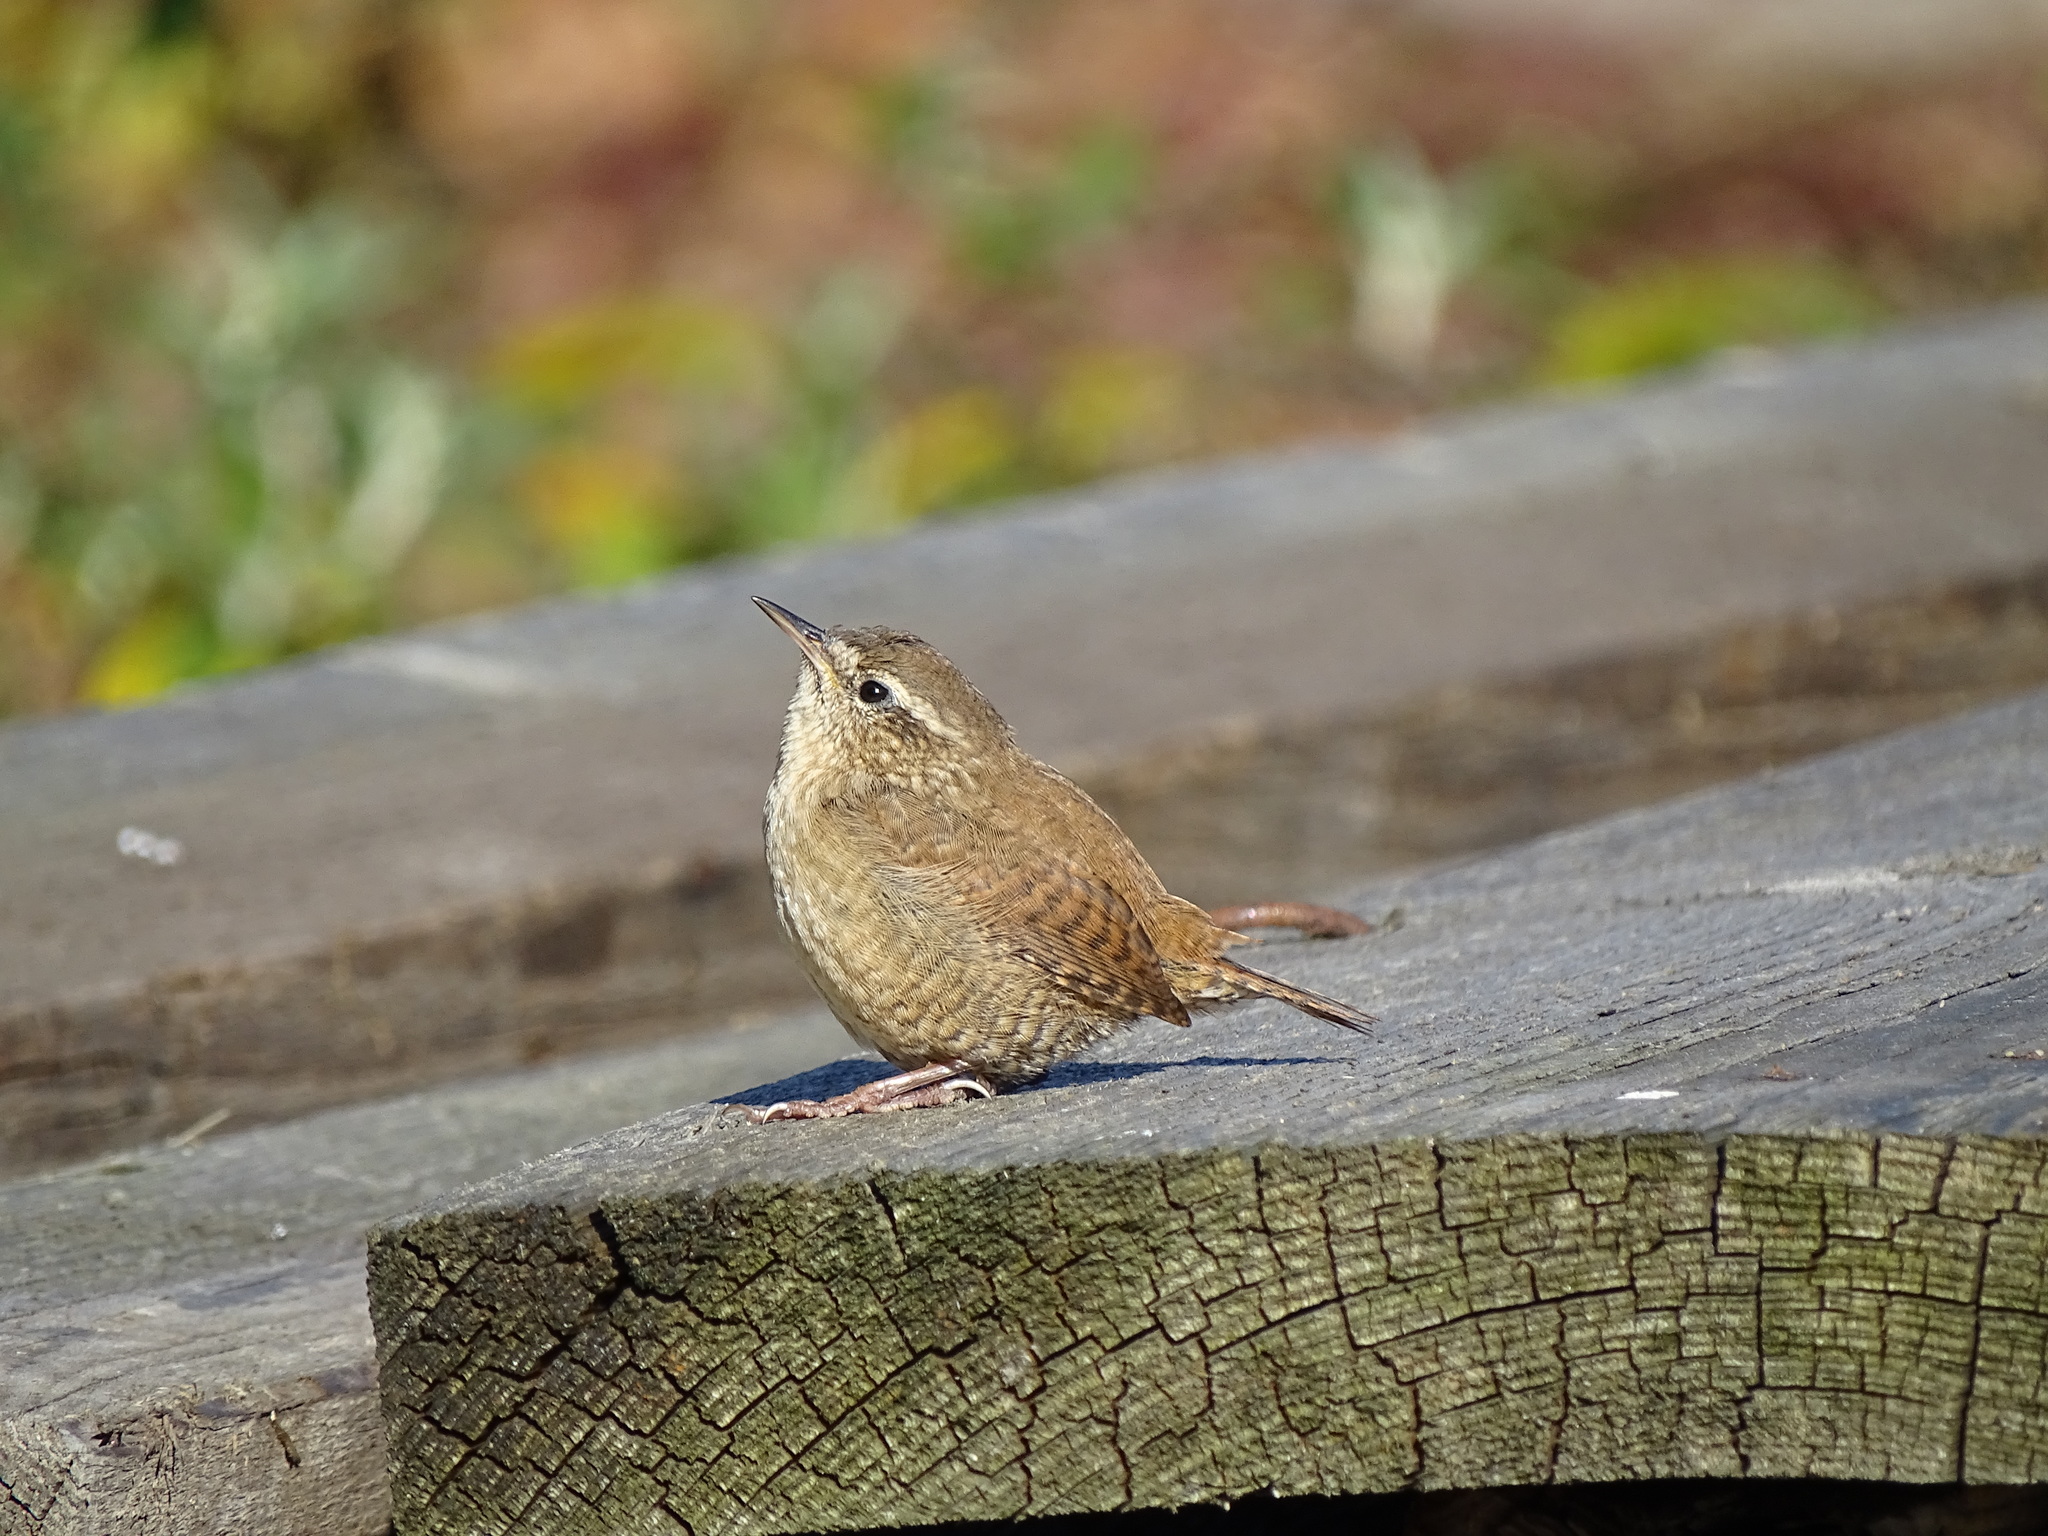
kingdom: Animalia
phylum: Chordata
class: Aves
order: Passeriformes
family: Troglodytidae
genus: Troglodytes
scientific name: Troglodytes troglodytes
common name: Eurasian wren
